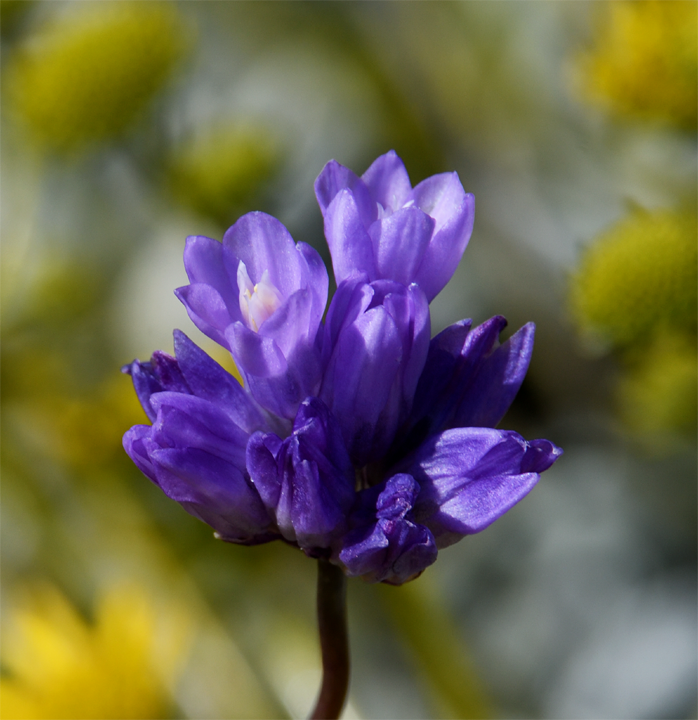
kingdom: Plantae
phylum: Tracheophyta
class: Liliopsida
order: Asparagales
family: Asparagaceae
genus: Dipterostemon
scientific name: Dipterostemon capitatus
